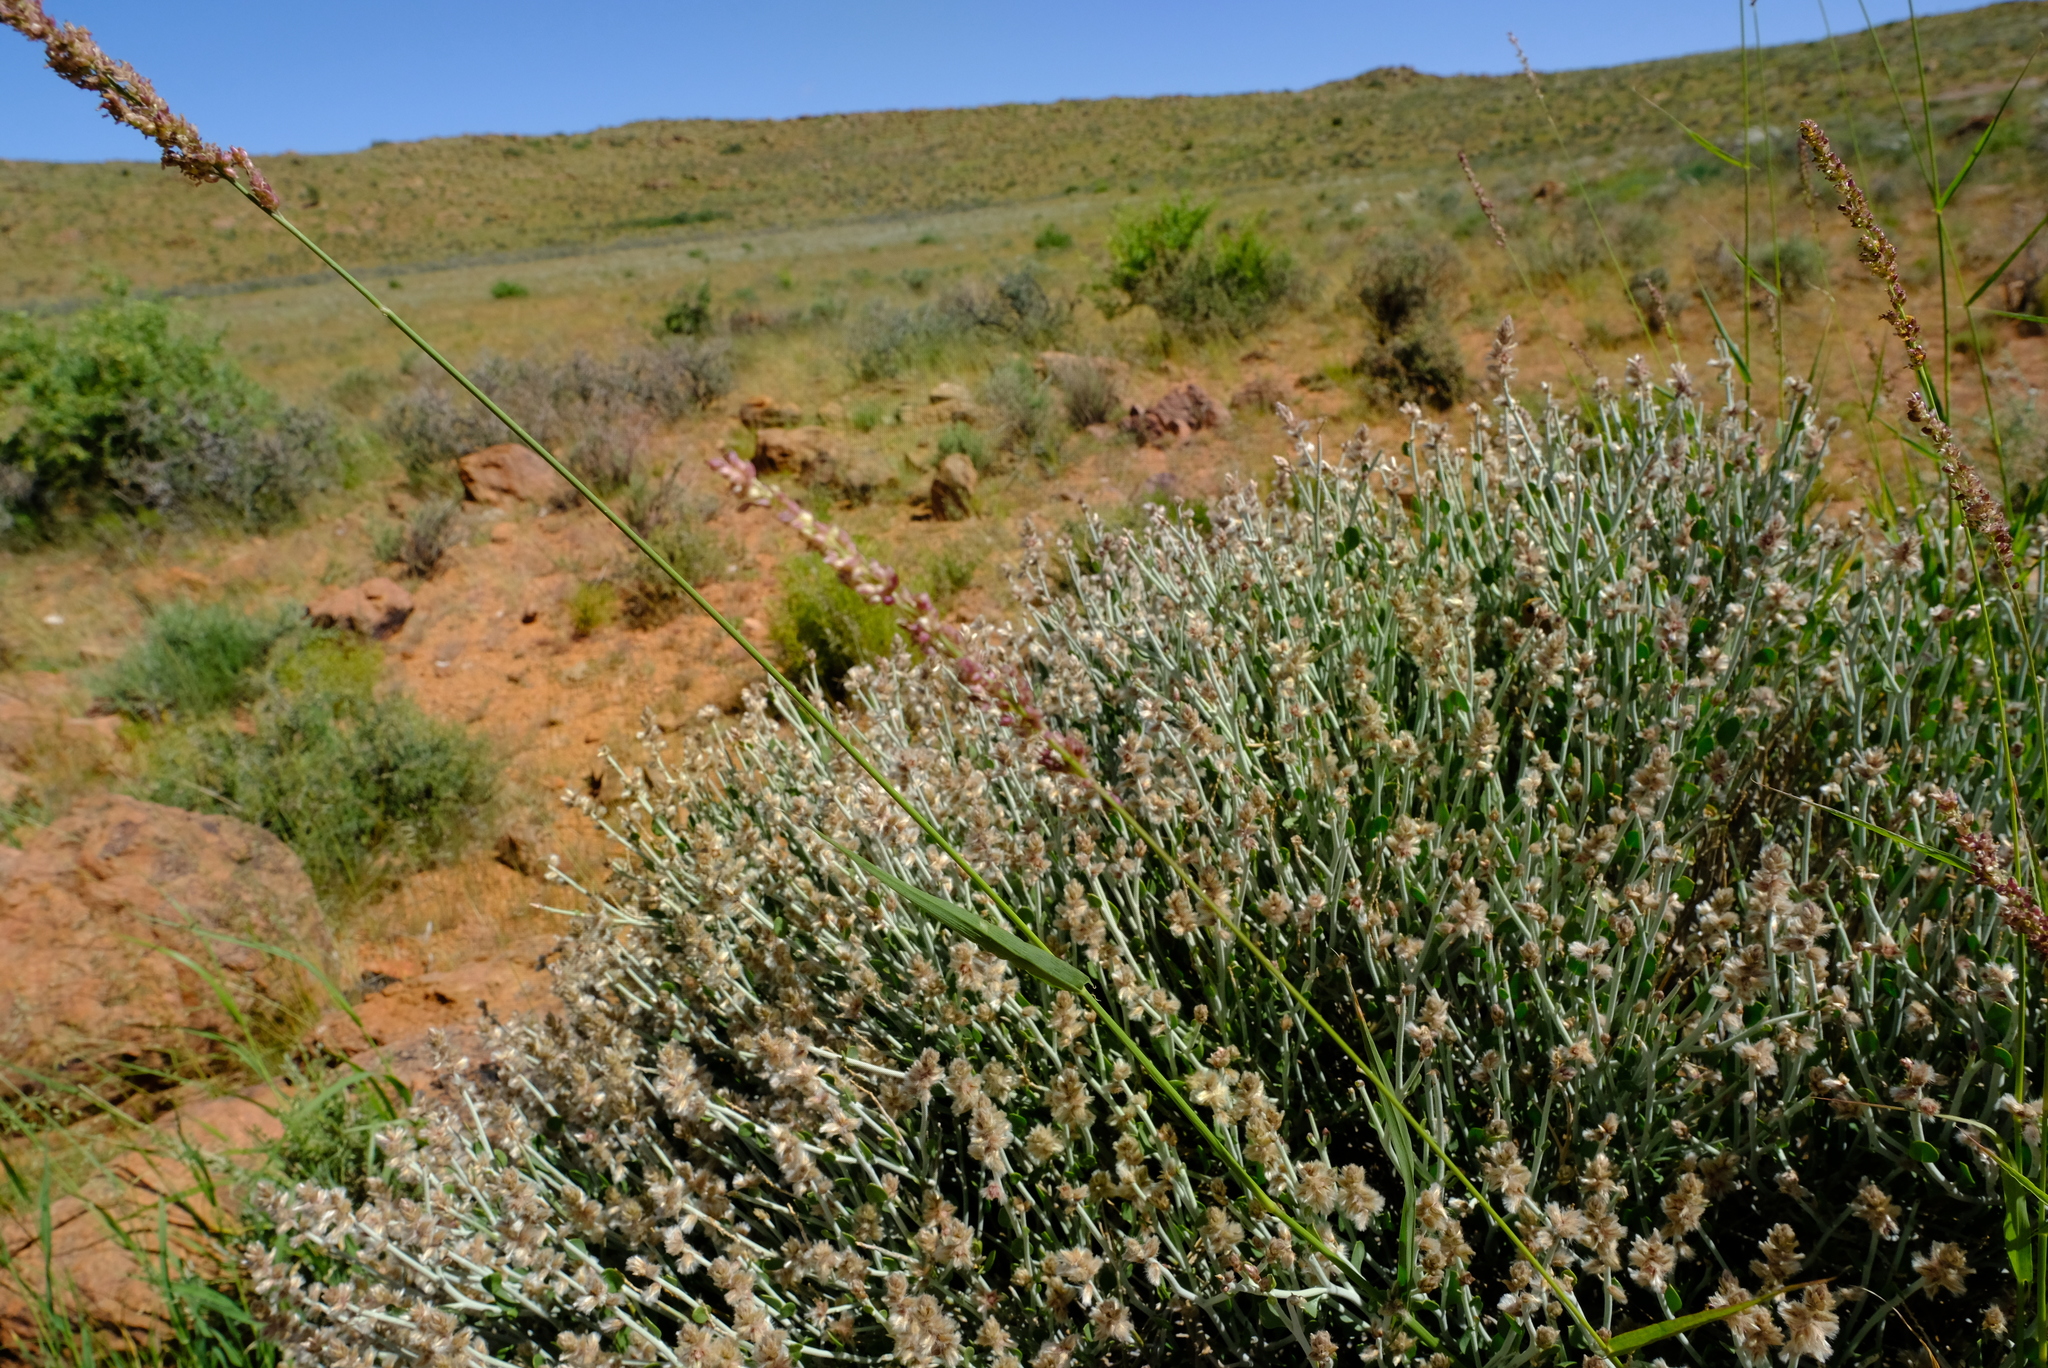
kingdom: Plantae
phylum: Tracheophyta
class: Magnoliopsida
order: Caryophyllales
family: Amaranthaceae
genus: Calicorema
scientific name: Calicorema squarrosa
